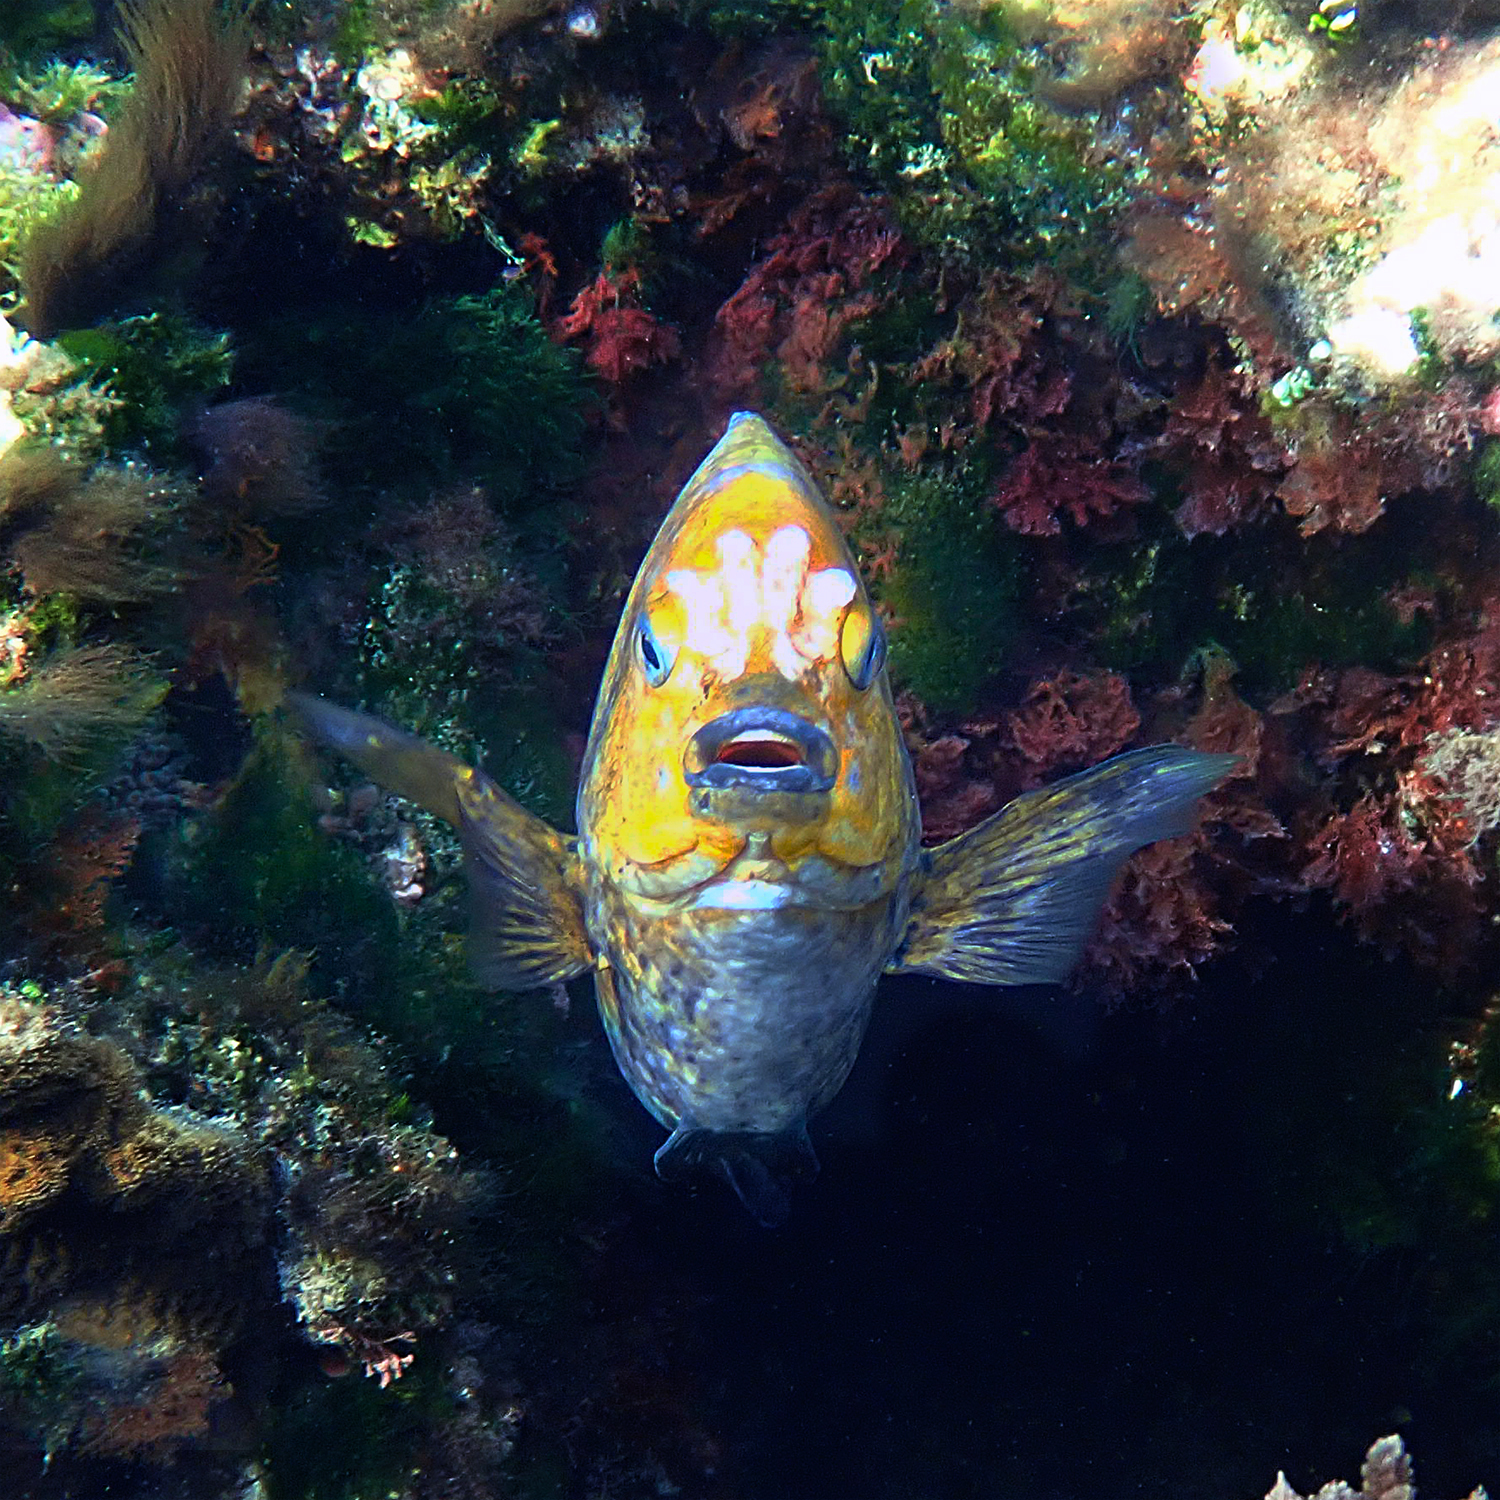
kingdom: Animalia
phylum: Chordata
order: Perciformes
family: Pomacentridae
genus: Parma
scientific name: Parma polylepis
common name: Banded parma
